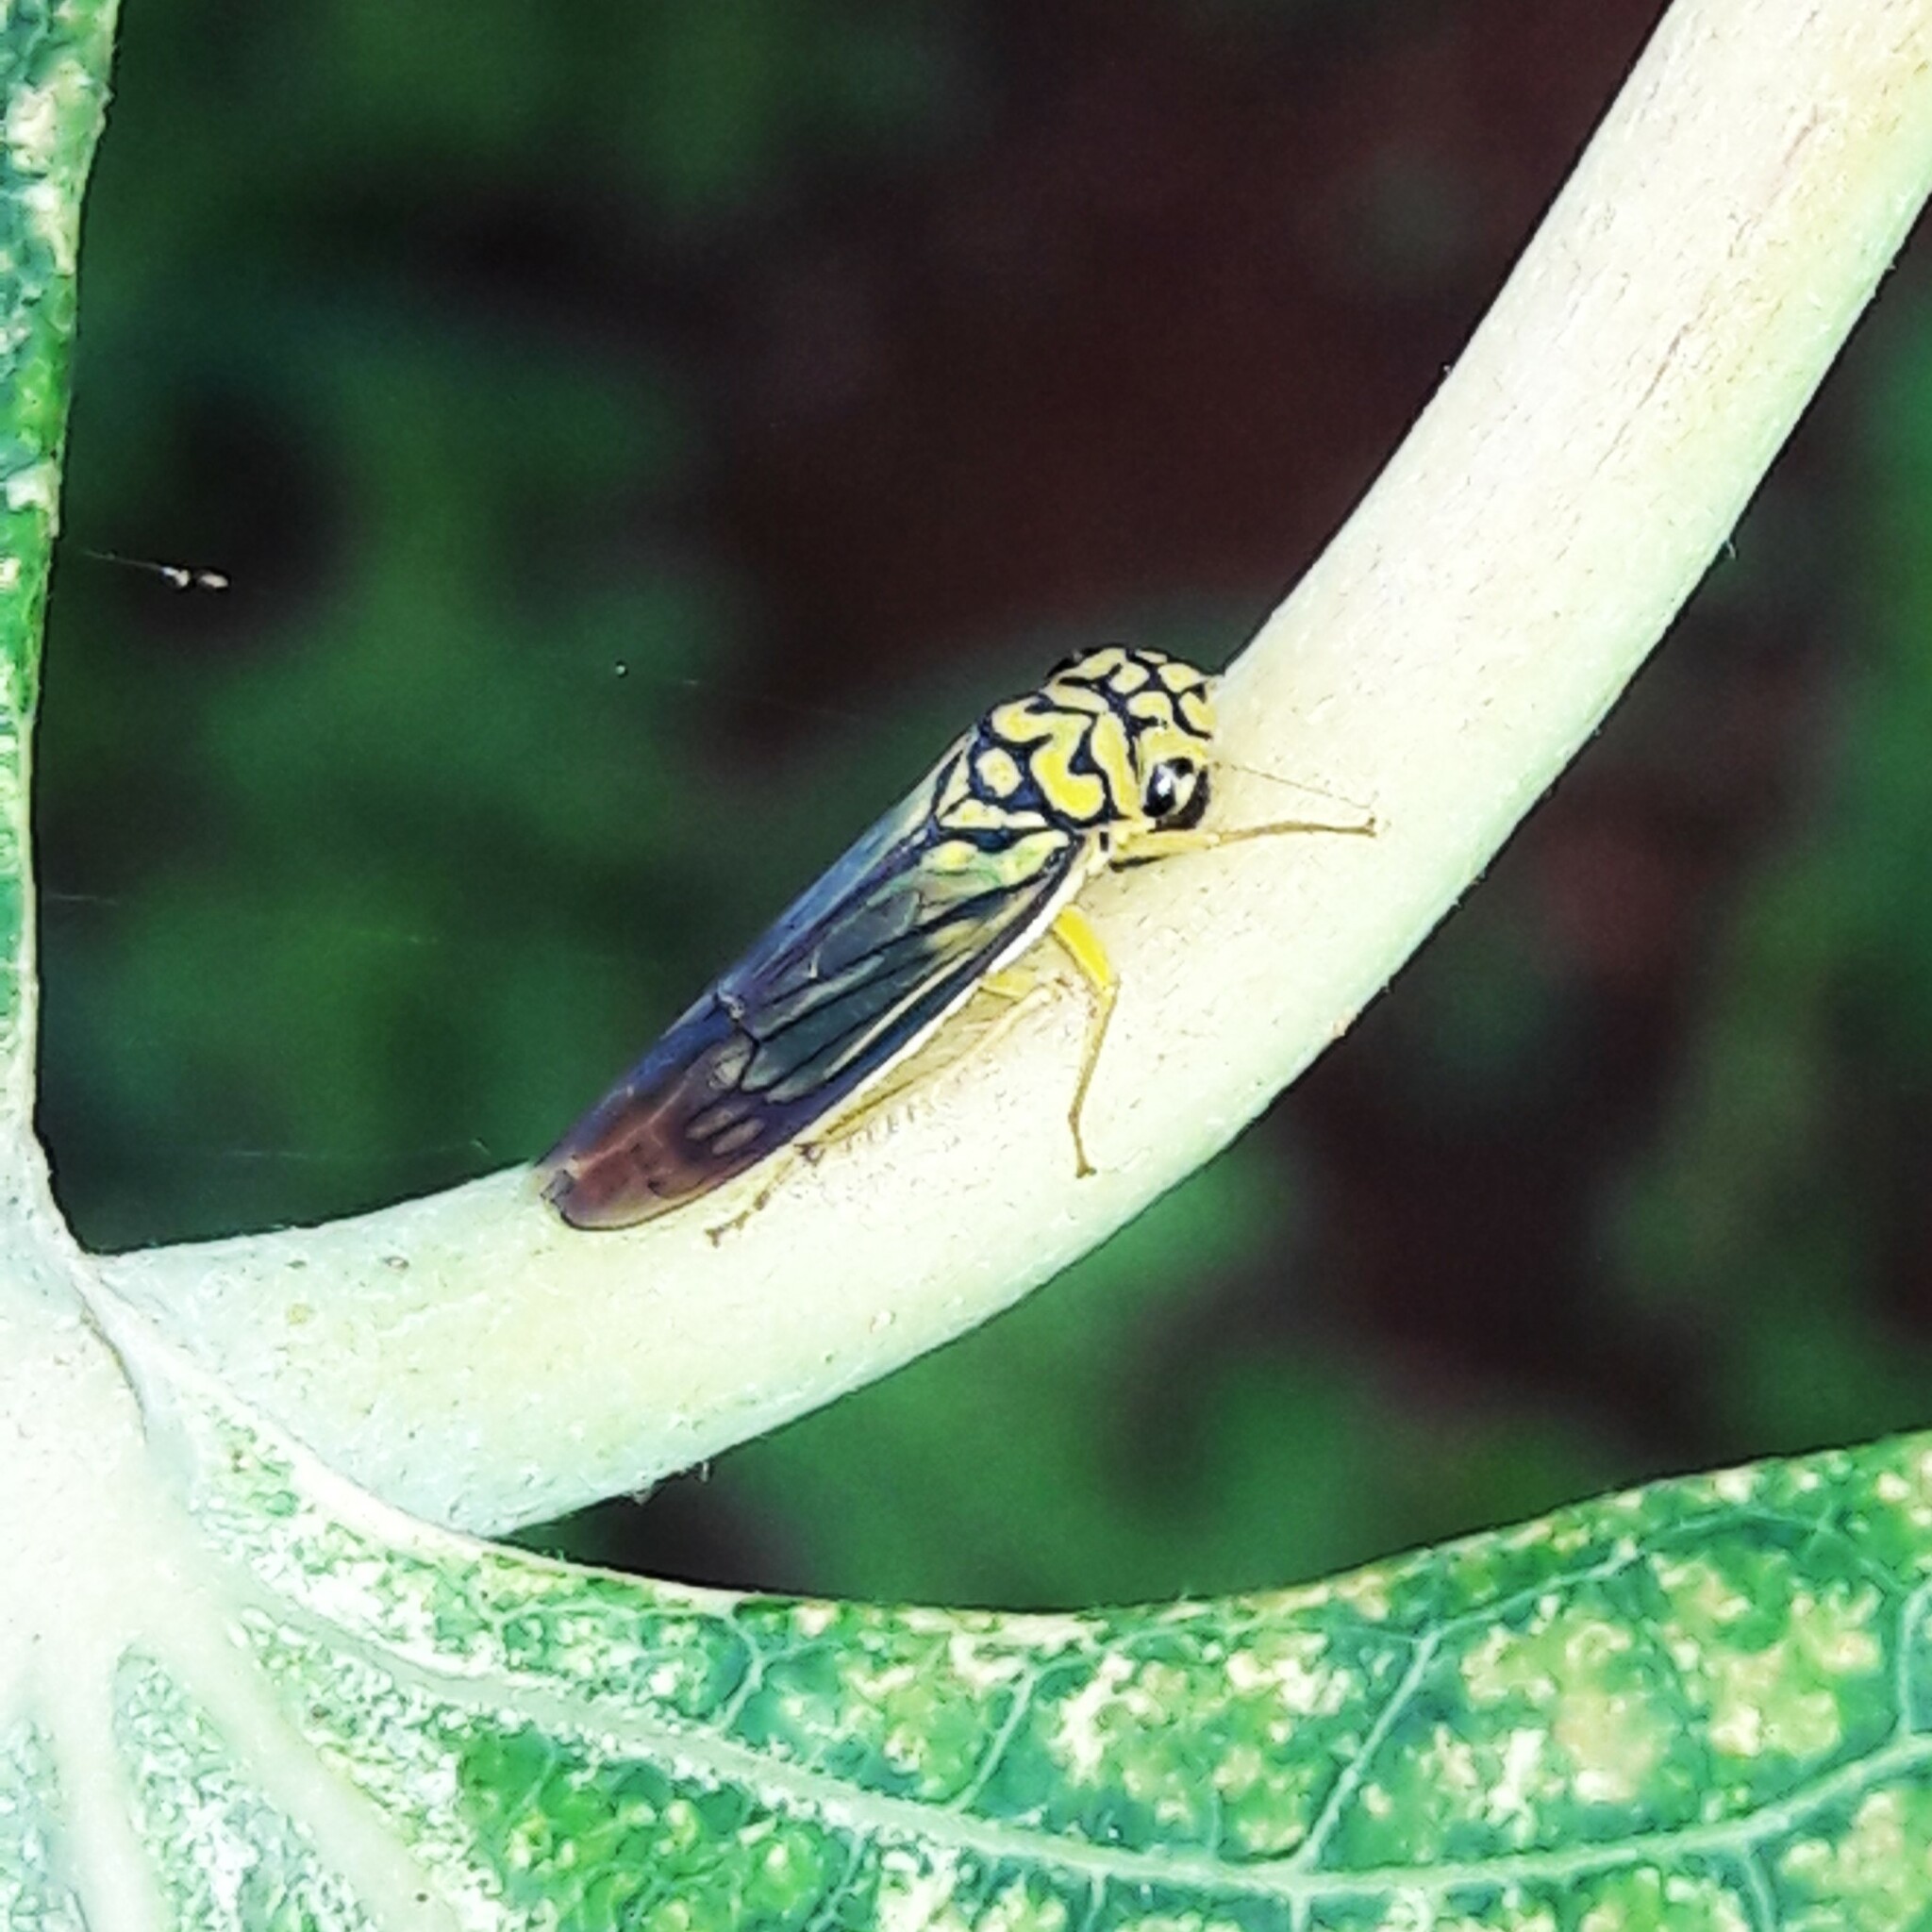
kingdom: Animalia
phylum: Arthropoda
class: Insecta
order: Hemiptera
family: Cicadellidae
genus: Dilobopterus
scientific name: Dilobopterus costalimai
